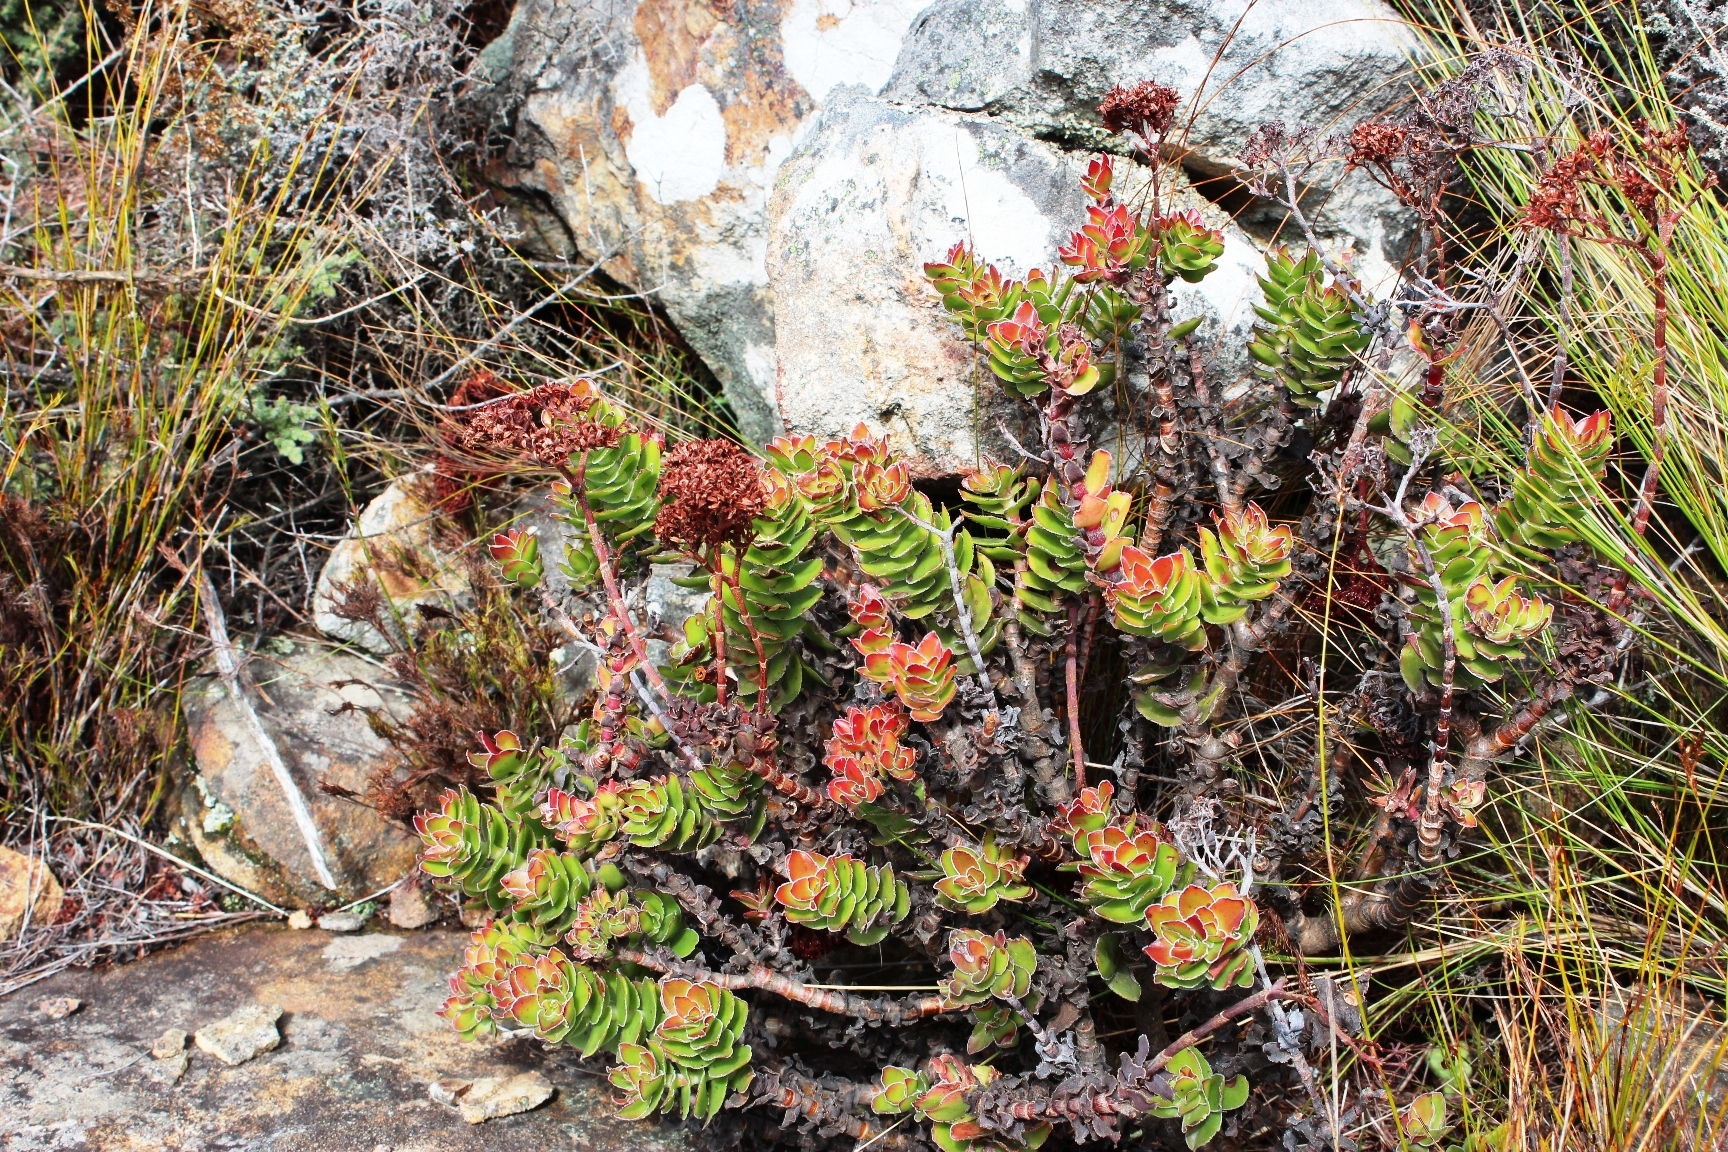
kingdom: Plantae
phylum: Tracheophyta
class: Magnoliopsida
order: Saxifragales
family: Crassulaceae
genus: Crassula
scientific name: Crassula undulata
